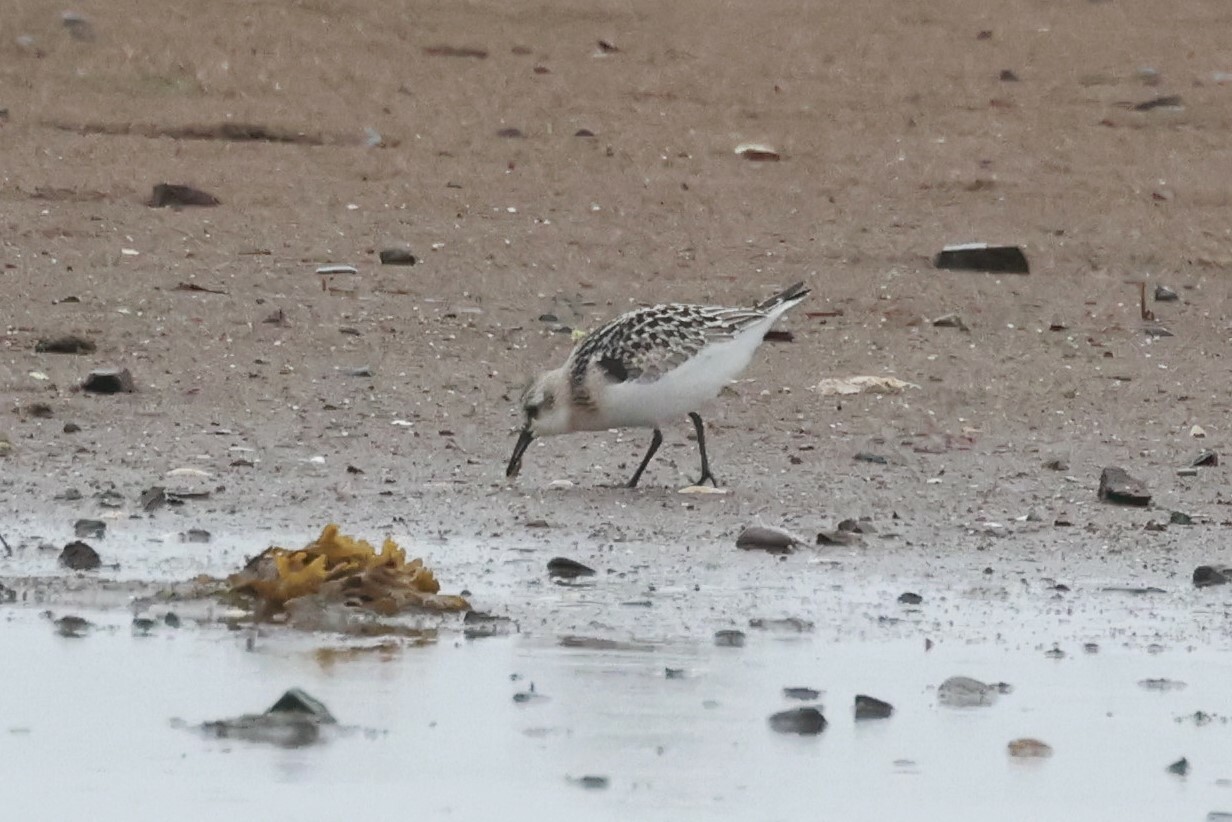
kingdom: Animalia
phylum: Chordata
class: Aves
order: Charadriiformes
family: Scolopacidae
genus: Calidris
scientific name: Calidris alba
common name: Sanderling
